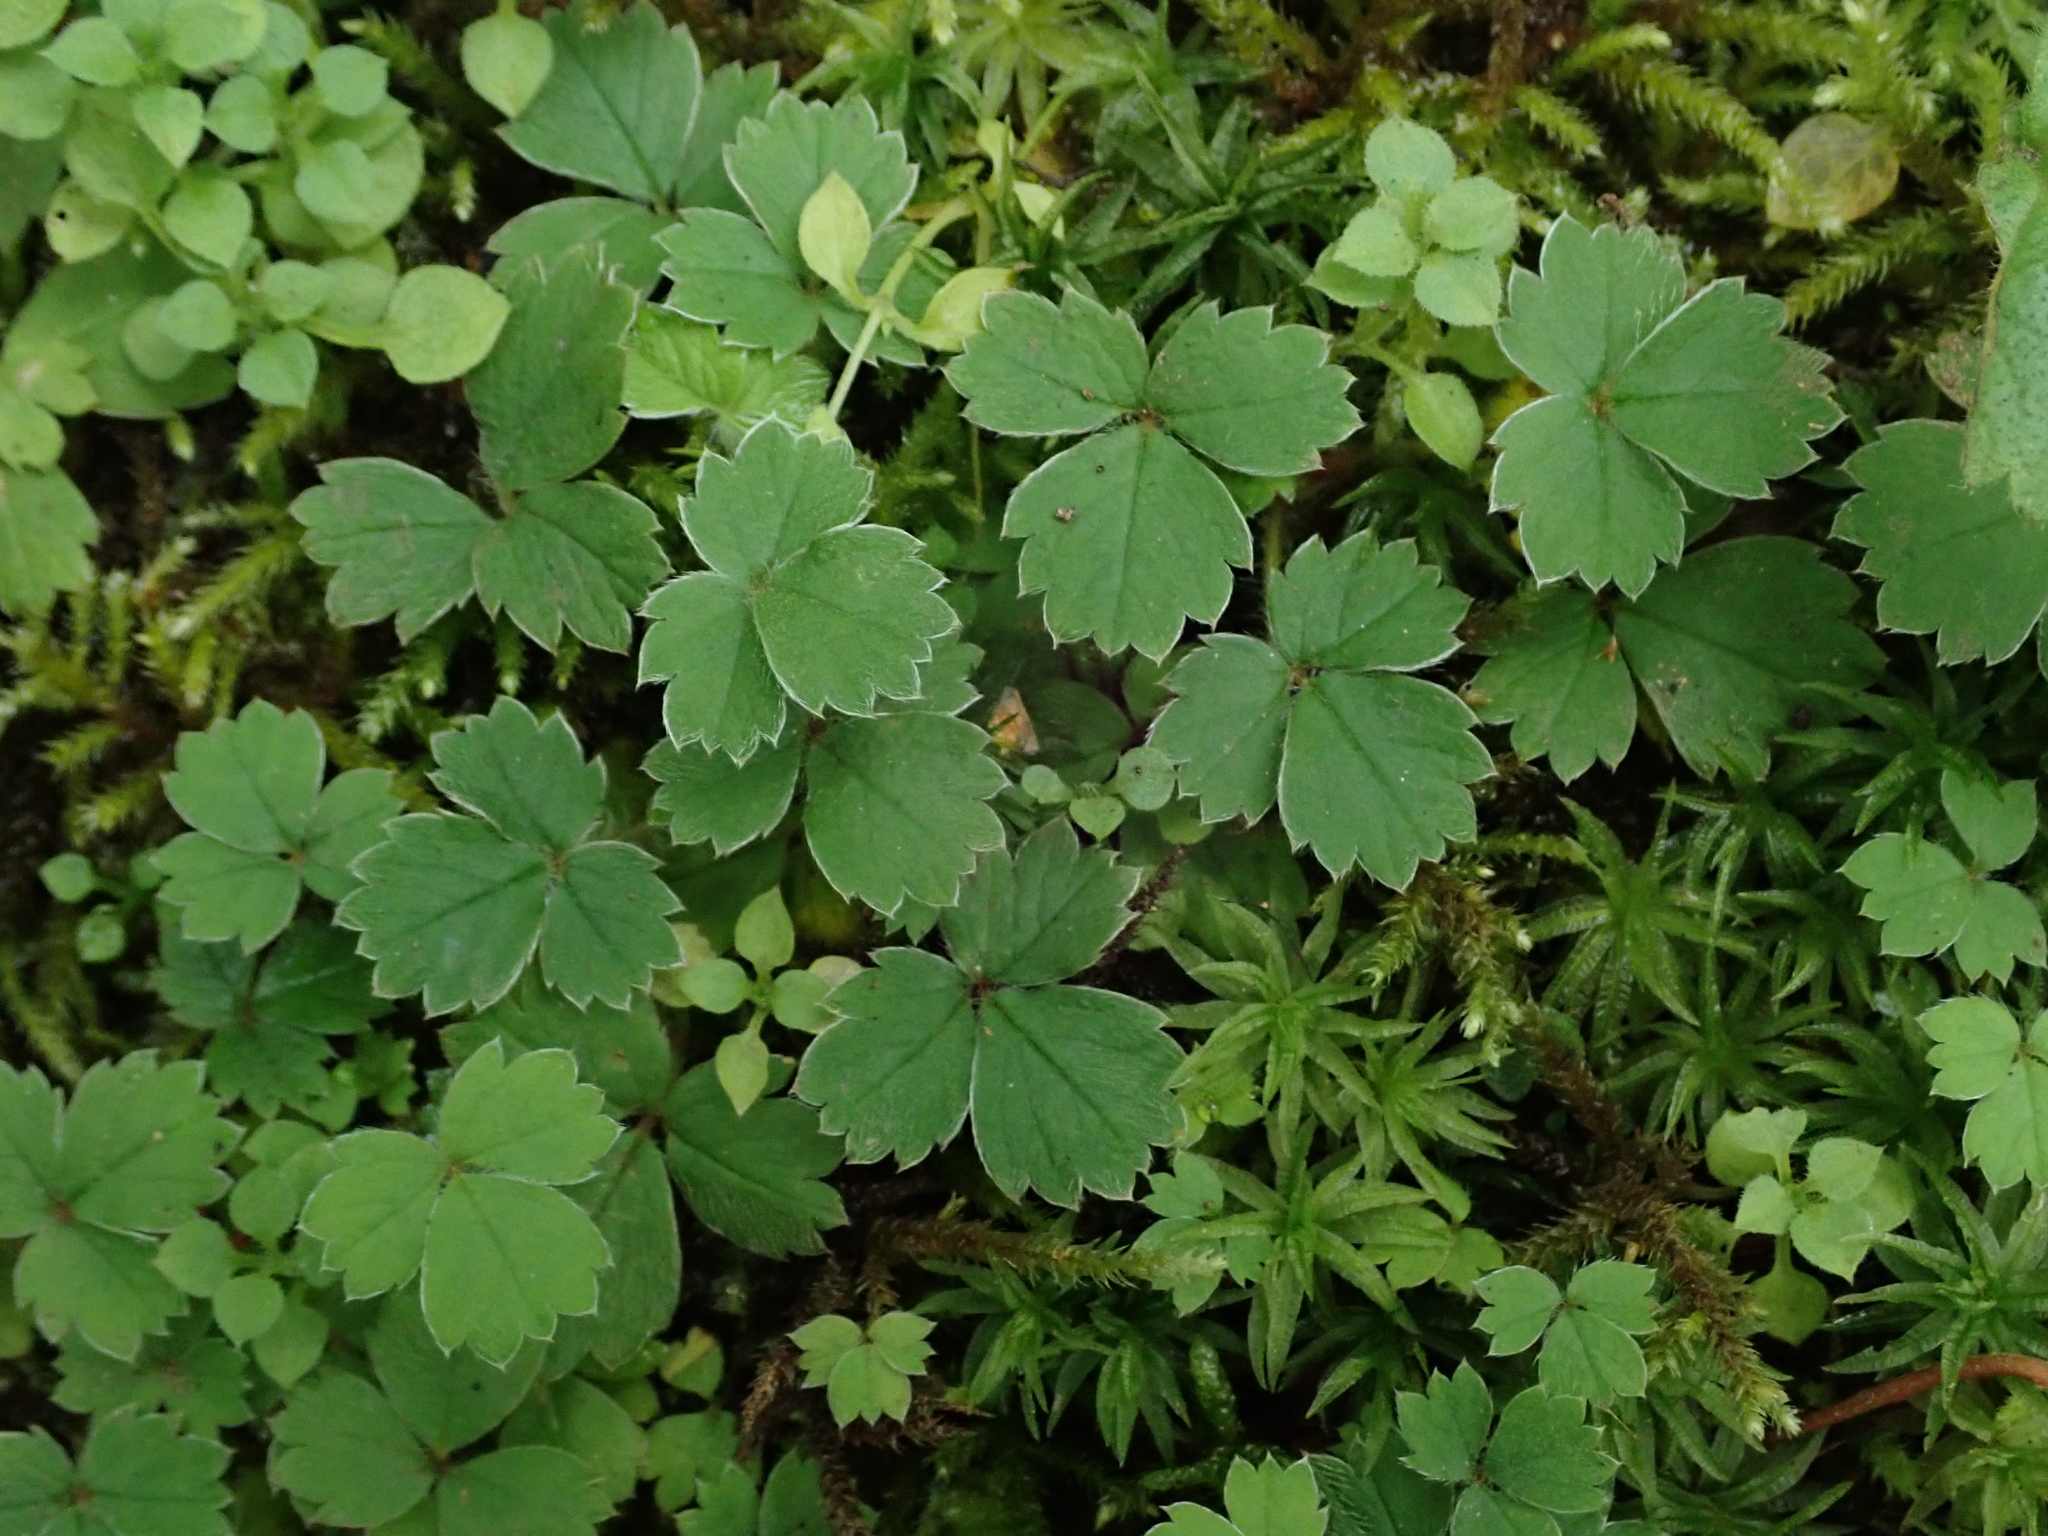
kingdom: Plantae
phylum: Tracheophyta
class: Magnoliopsida
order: Rosales
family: Rosaceae
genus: Potentilla
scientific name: Potentilla sterilis
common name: Barren strawberry
